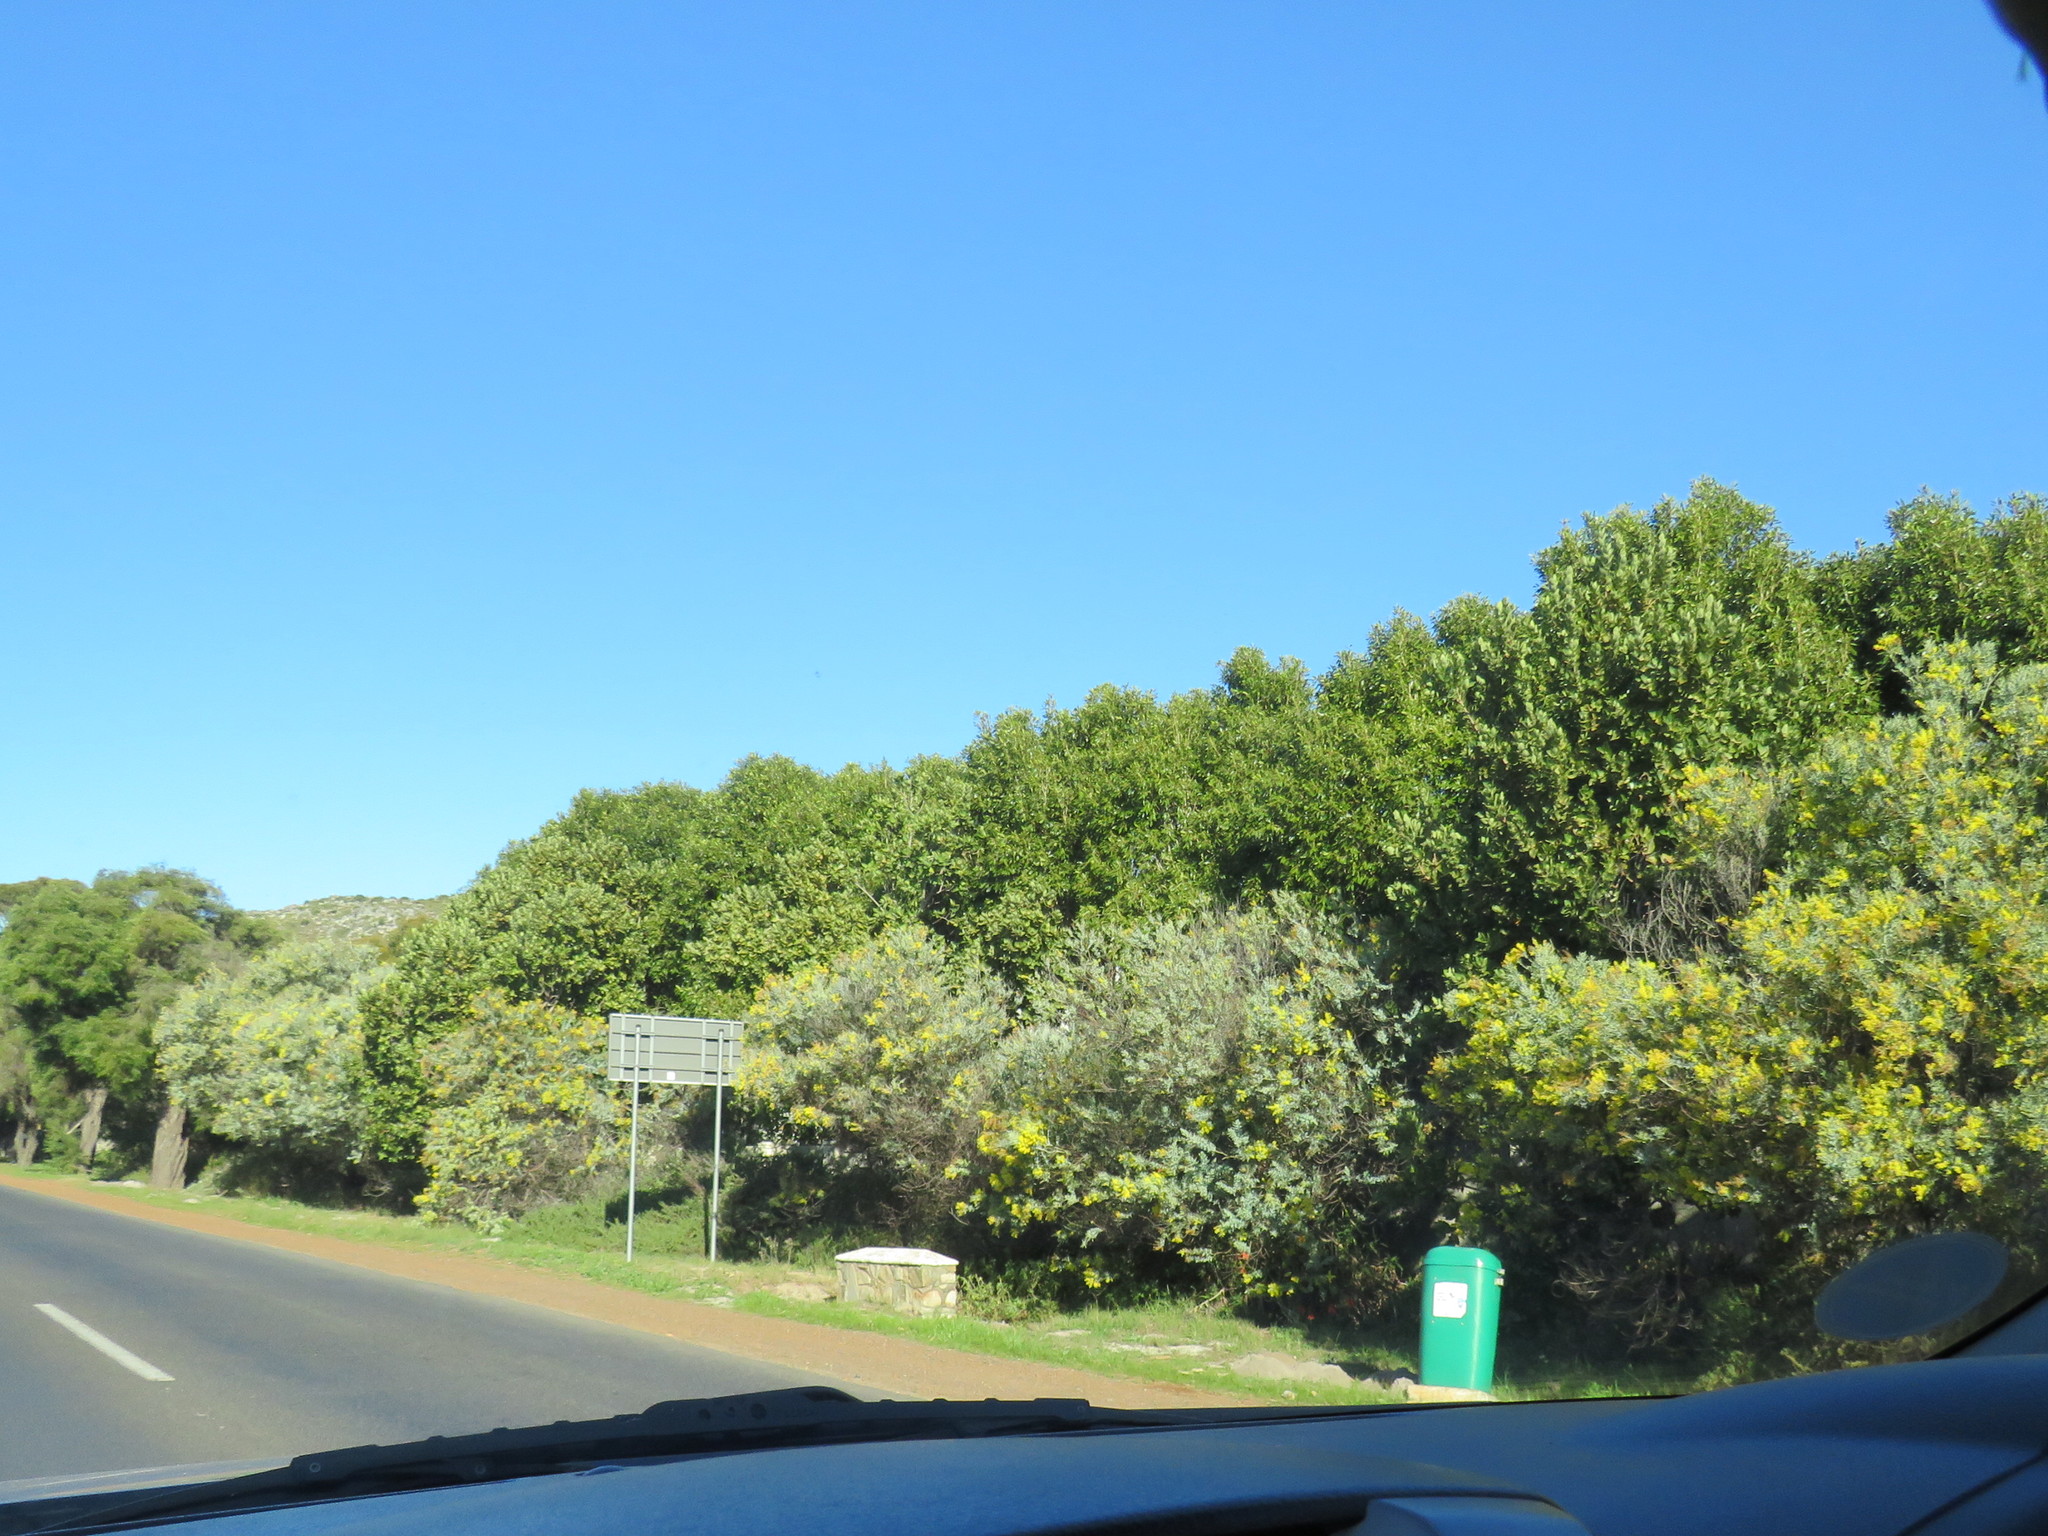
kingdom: Plantae
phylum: Tracheophyta
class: Magnoliopsida
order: Fabales
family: Fabaceae
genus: Acacia
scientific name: Acacia podalyriifolia
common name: Pearl wattle
